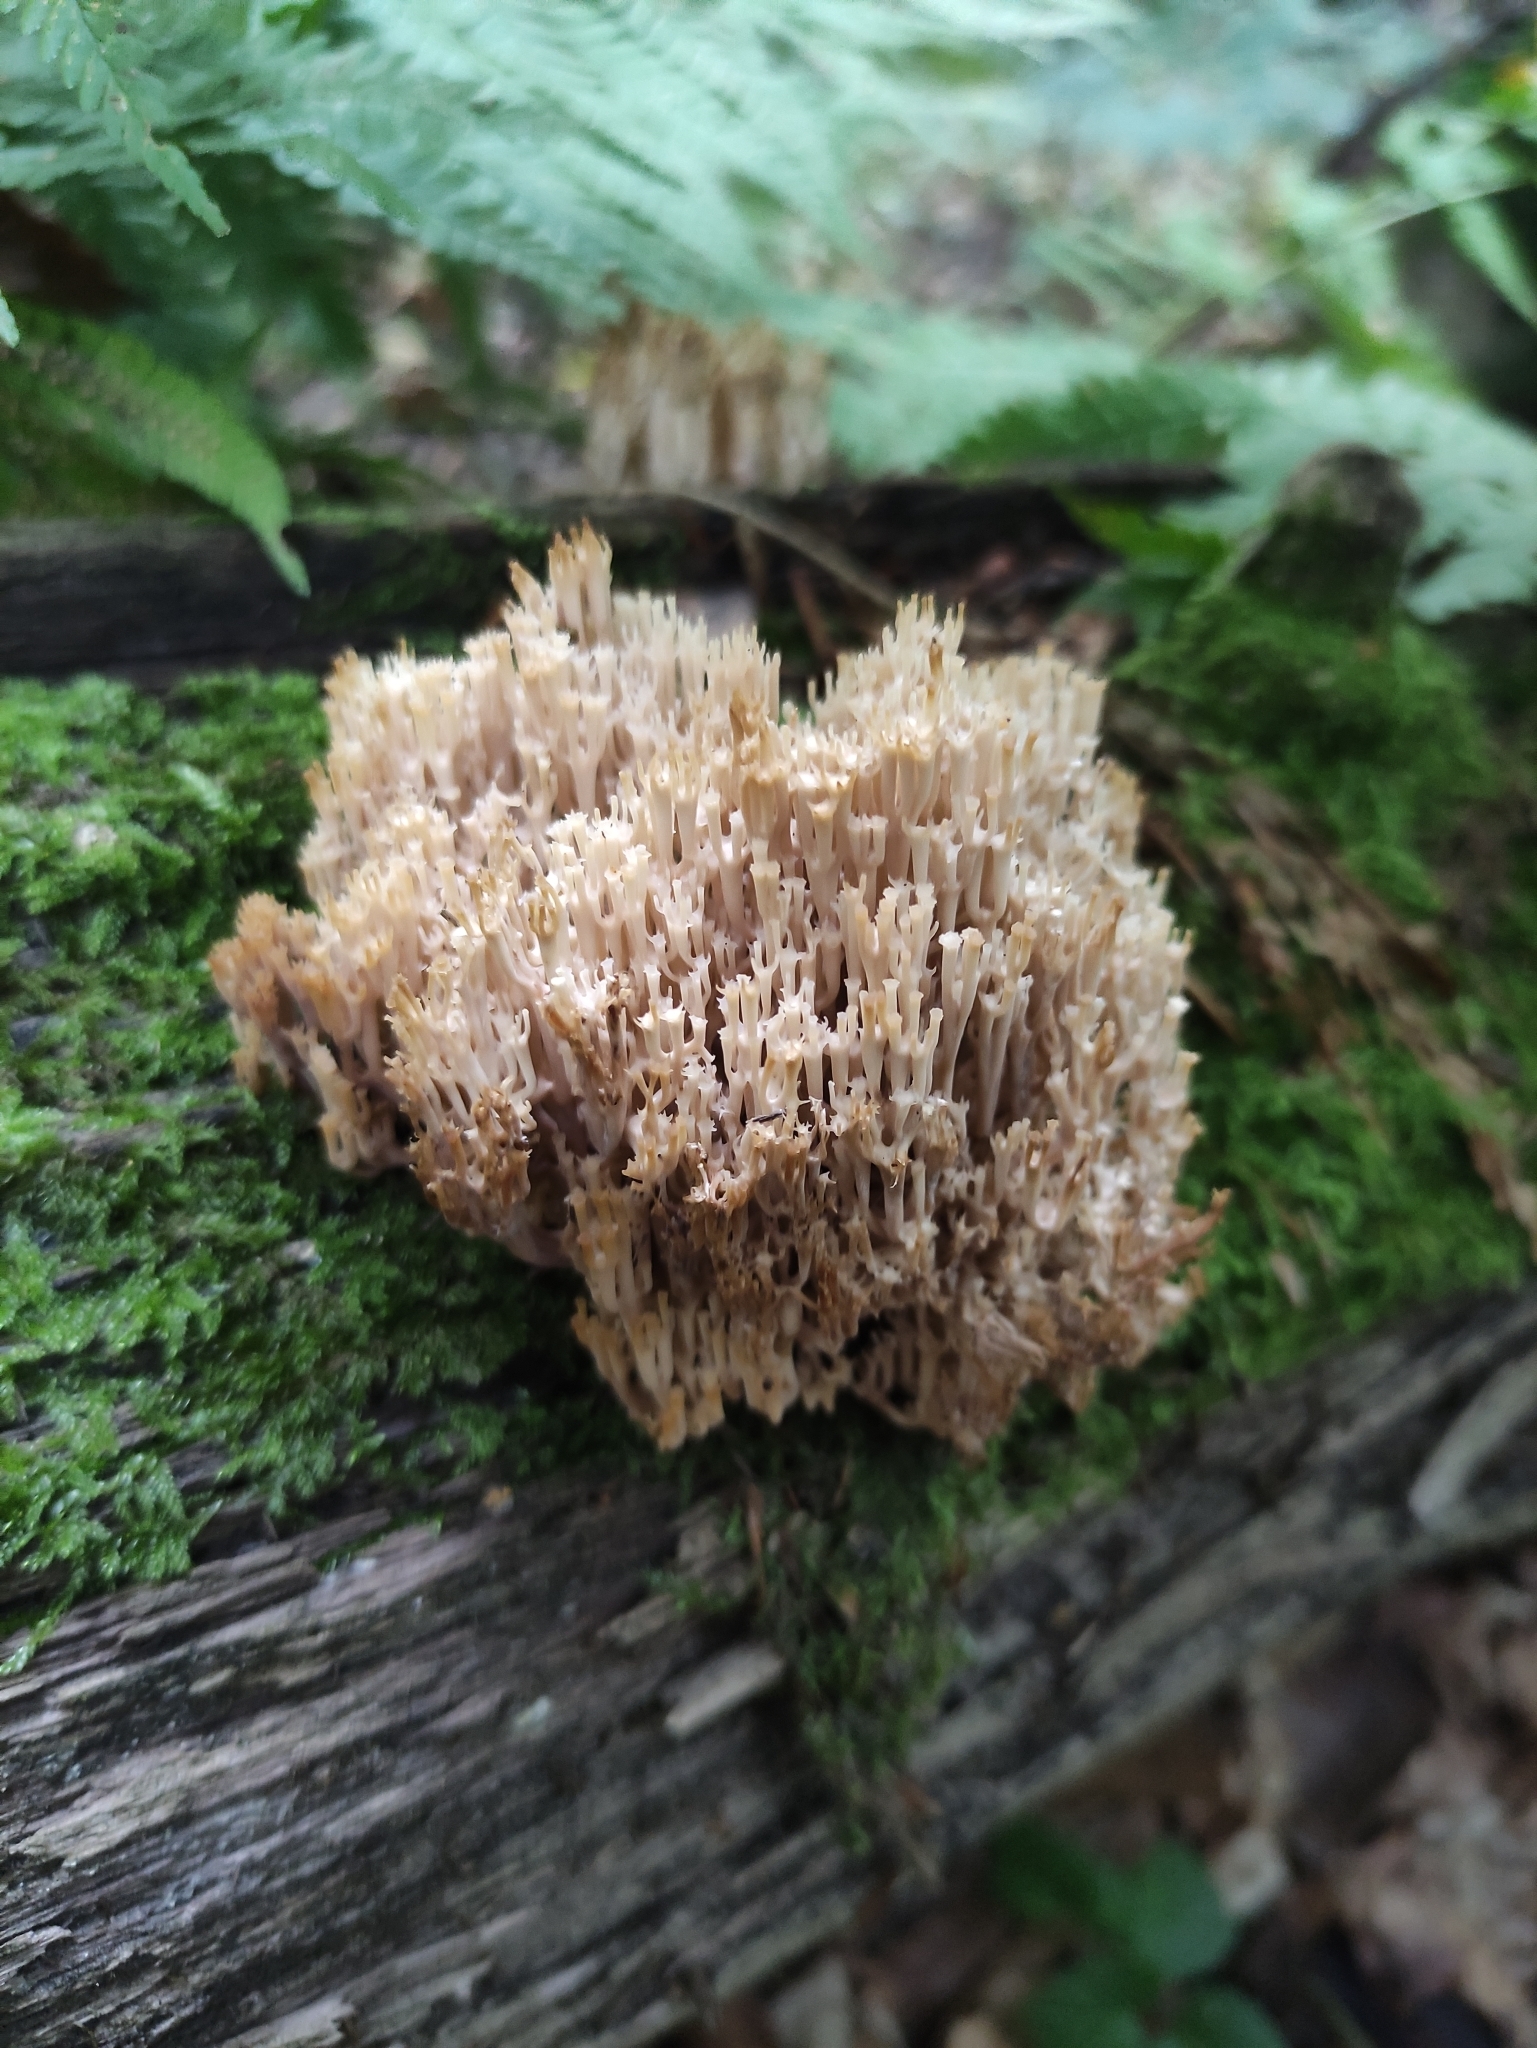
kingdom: Fungi
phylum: Basidiomycota
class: Agaricomycetes
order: Russulales
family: Auriscalpiaceae
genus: Artomyces
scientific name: Artomyces pyxidatus
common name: Crown-tipped coral fungus
